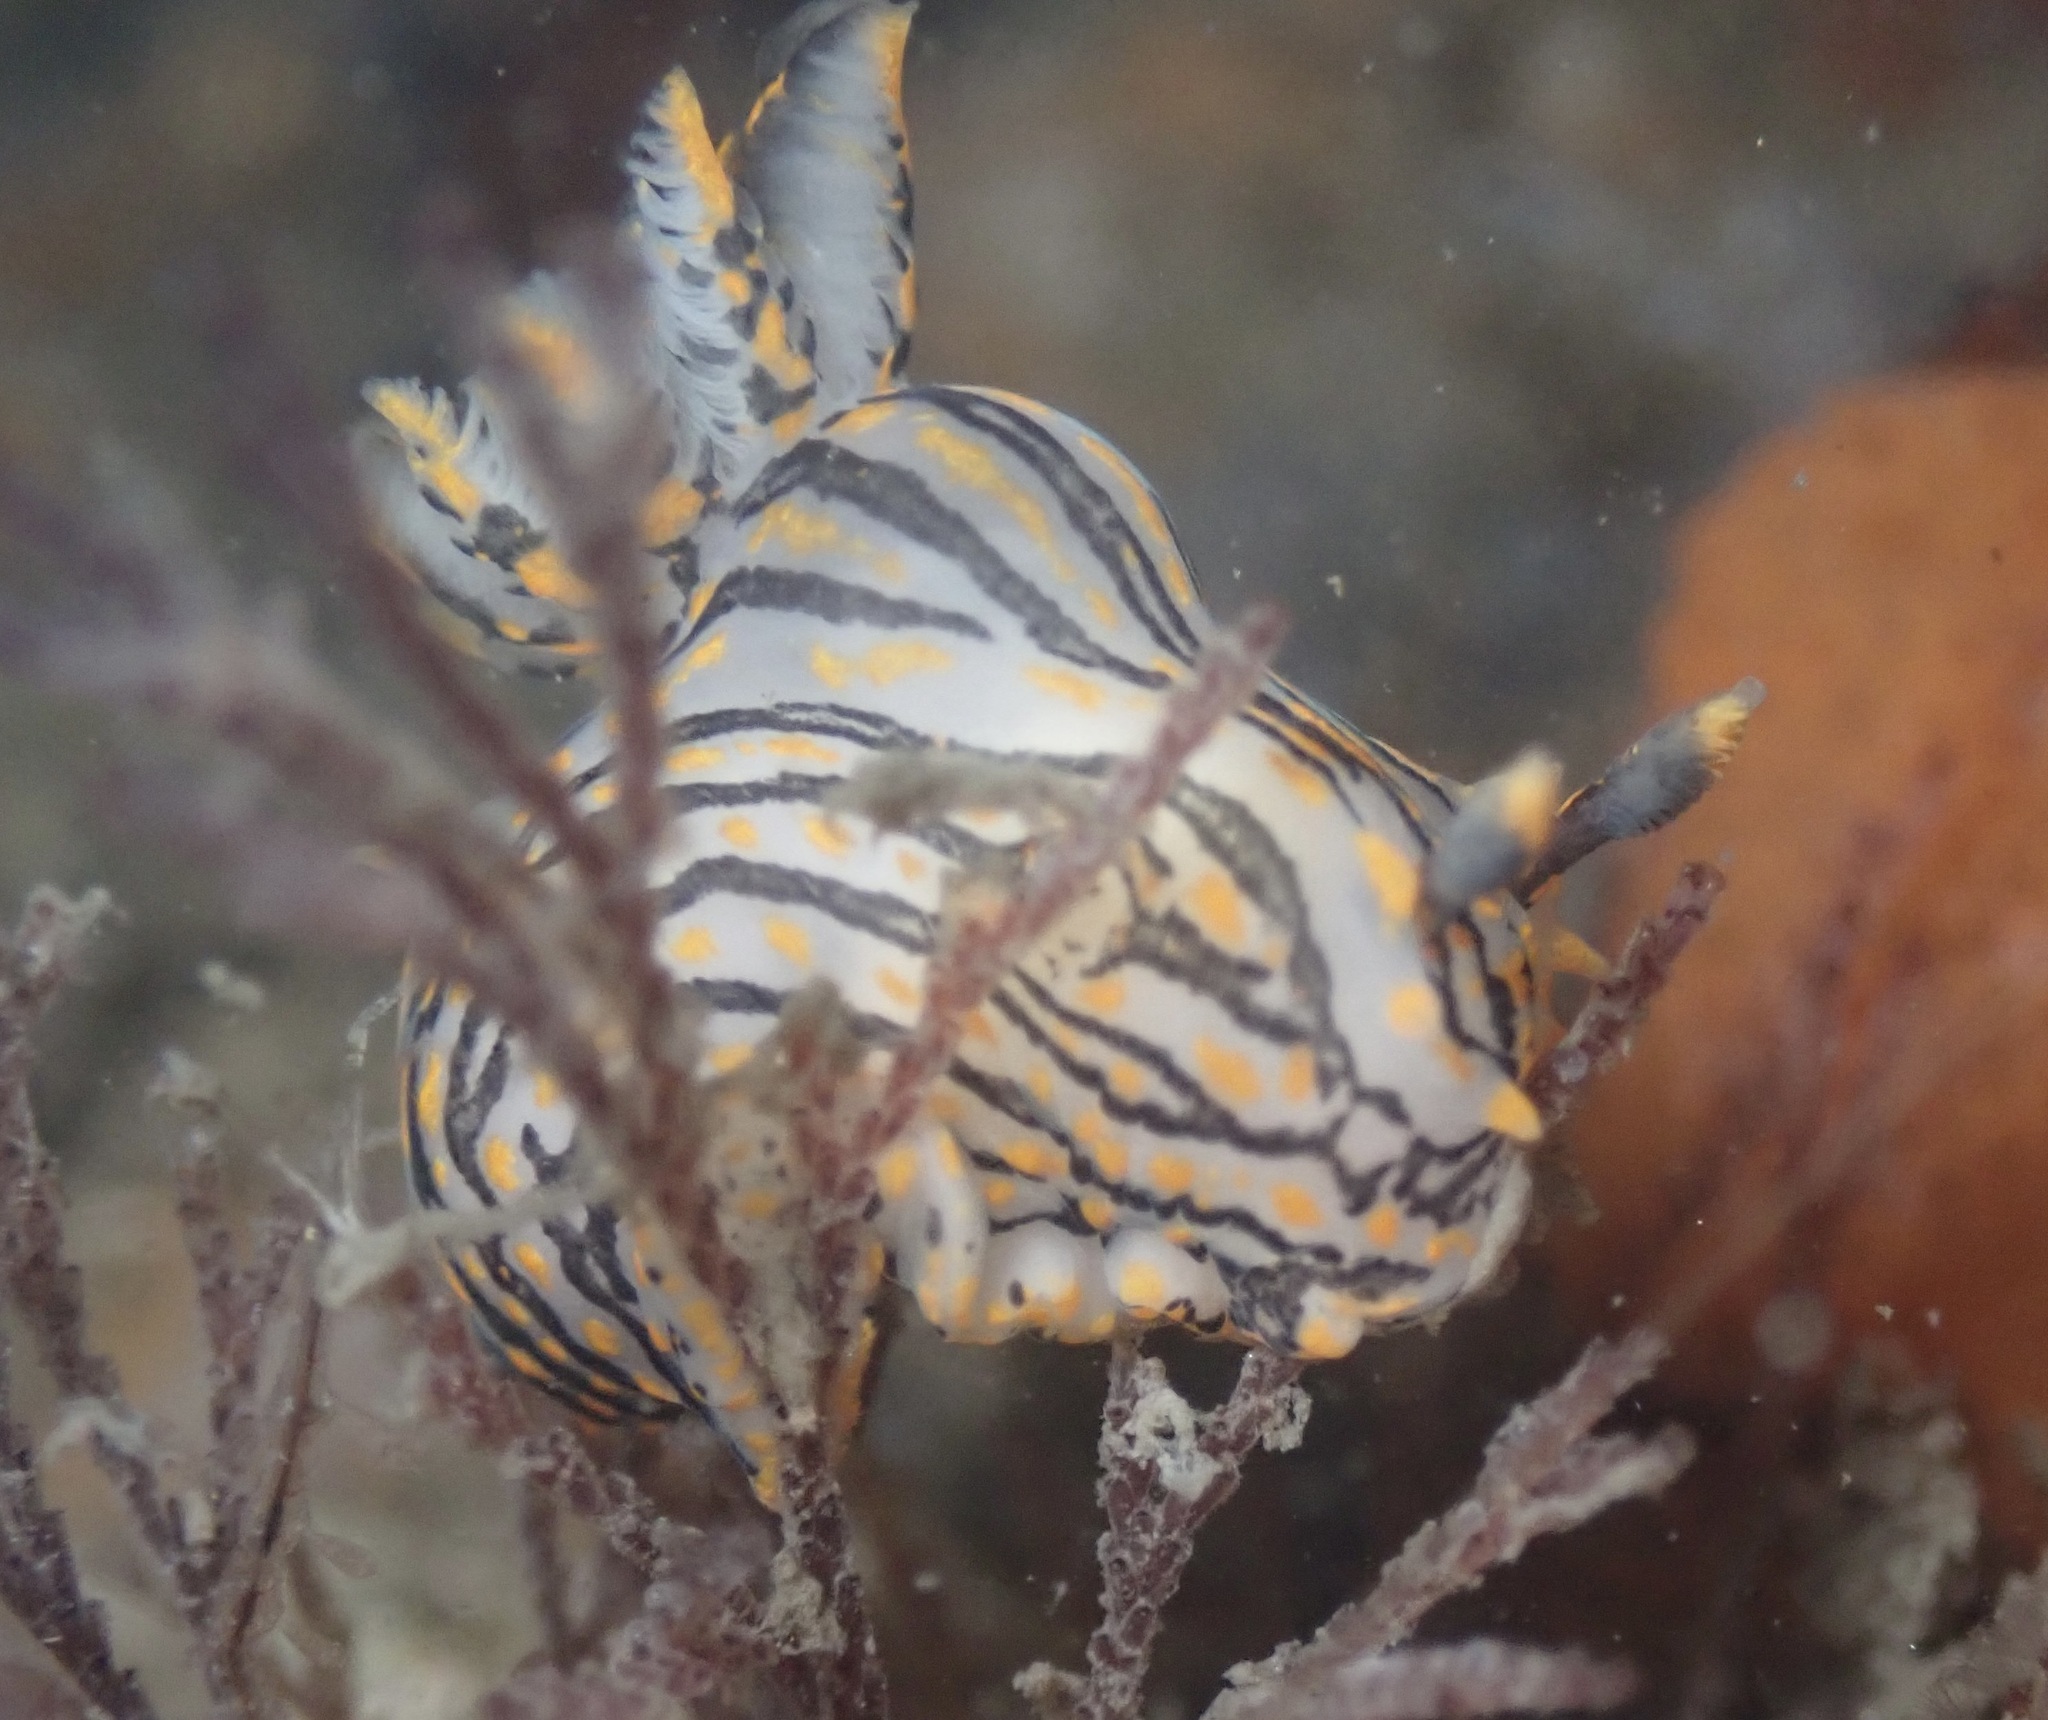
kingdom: Animalia
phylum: Mollusca
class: Gastropoda
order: Nudibranchia
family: Polyceridae
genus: Polycera
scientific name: Polycera atra
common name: Orange-spike polycera
